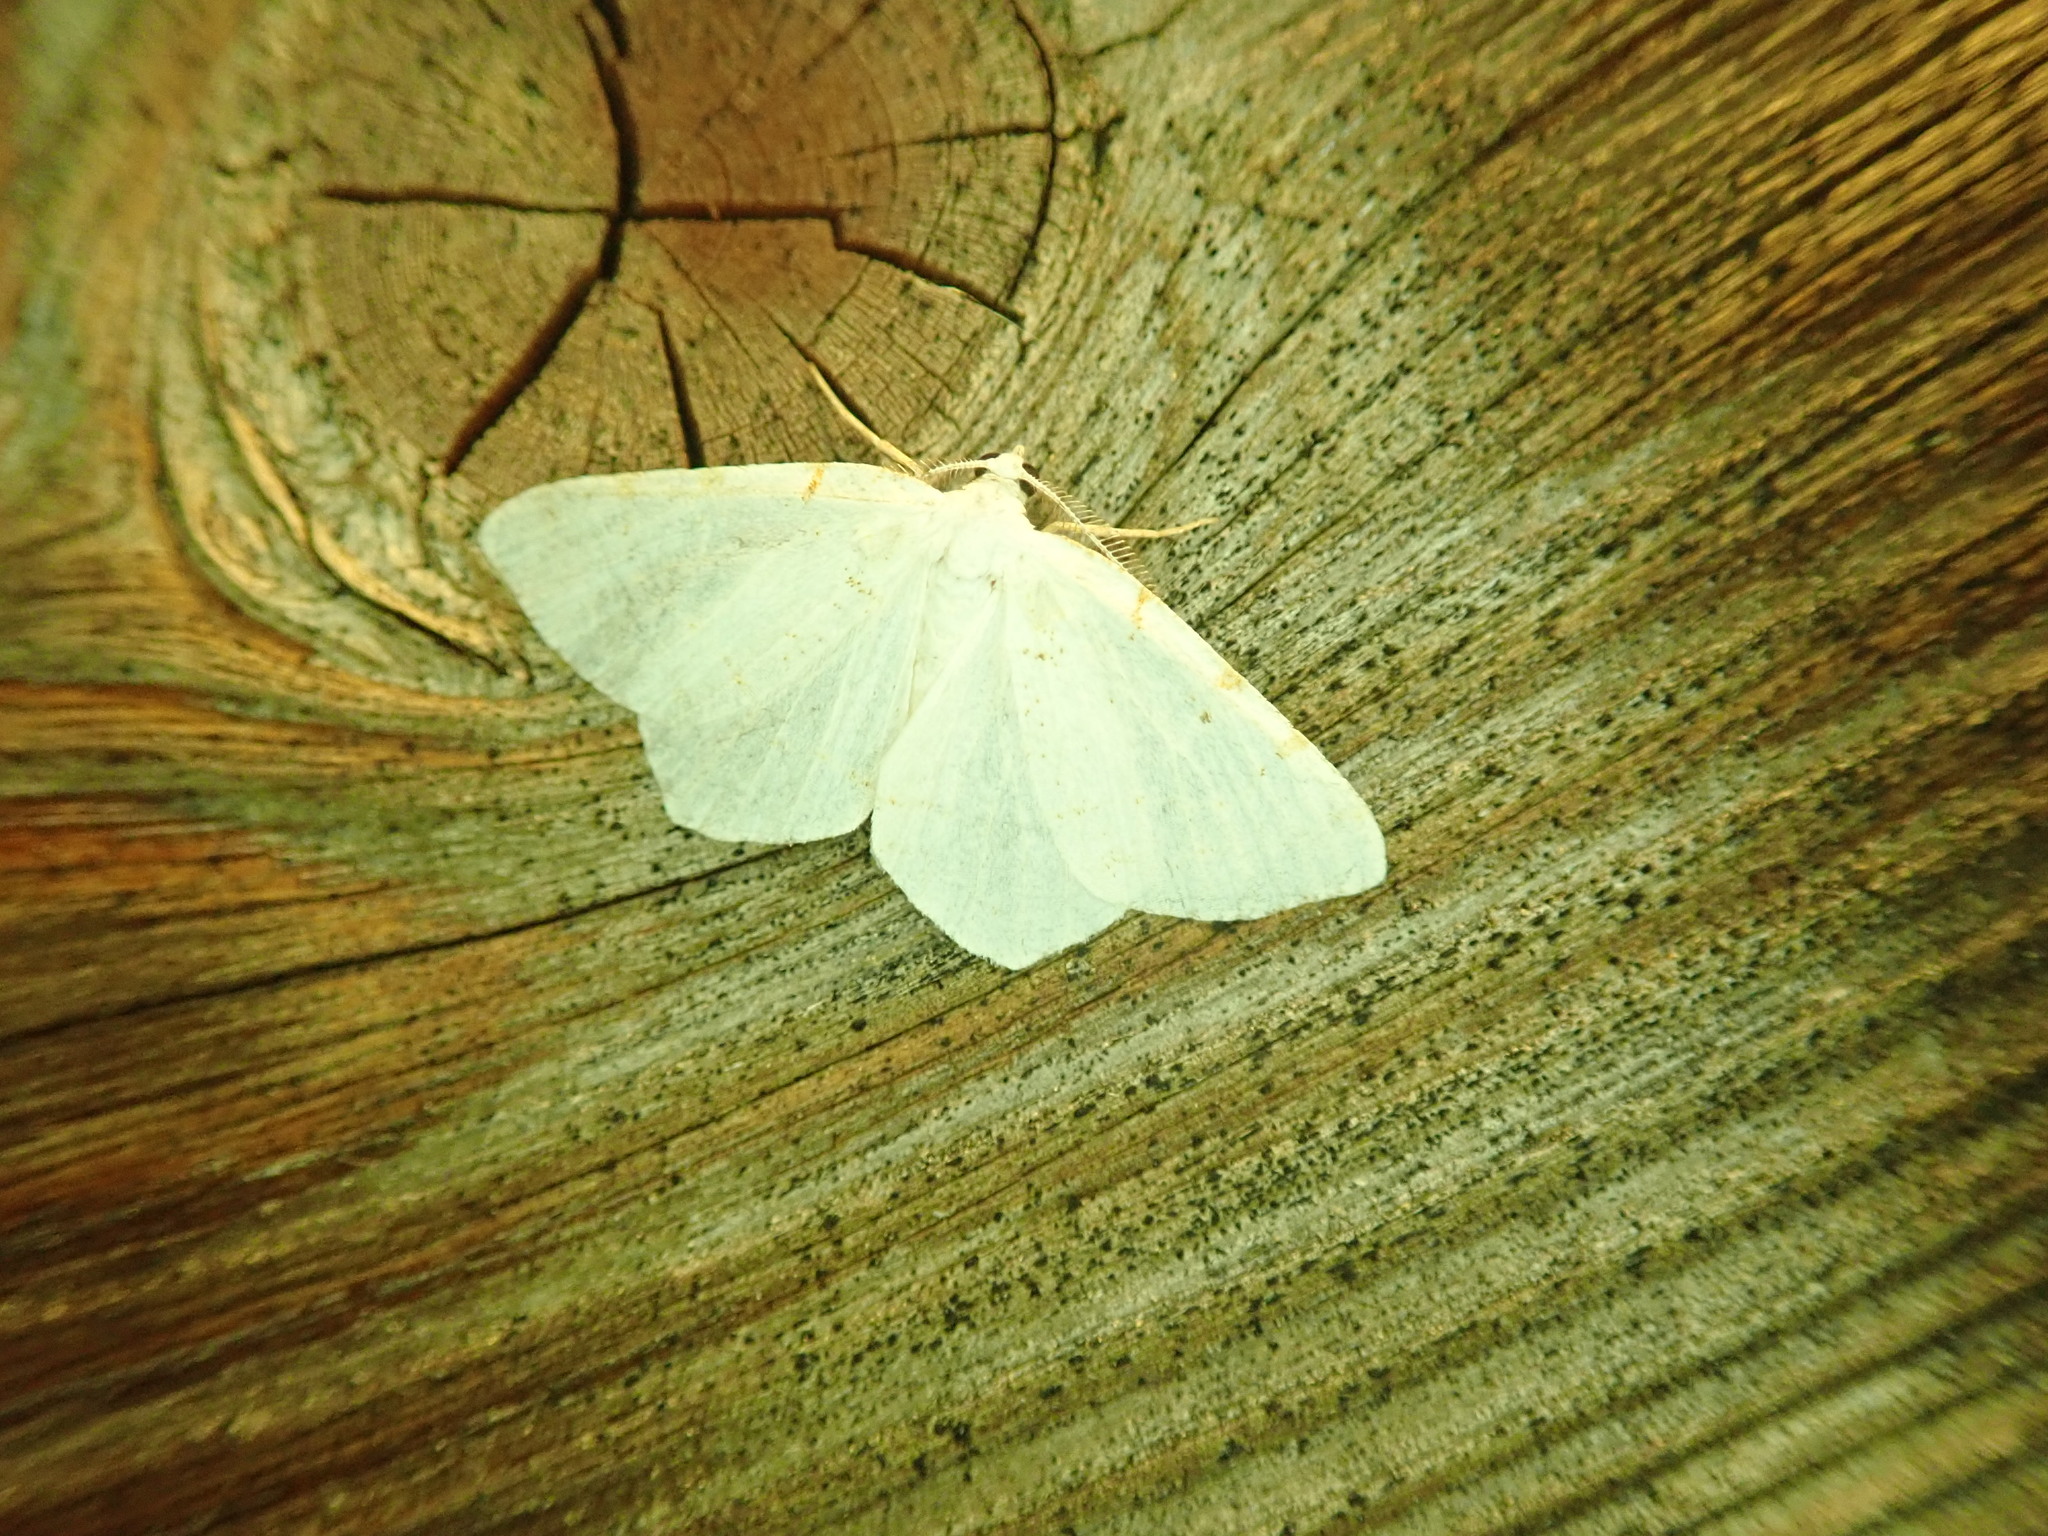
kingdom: Animalia
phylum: Arthropoda
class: Insecta
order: Lepidoptera
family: Geometridae
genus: Macaria
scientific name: Macaria pustularia
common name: Lesser maple spanworm moth
